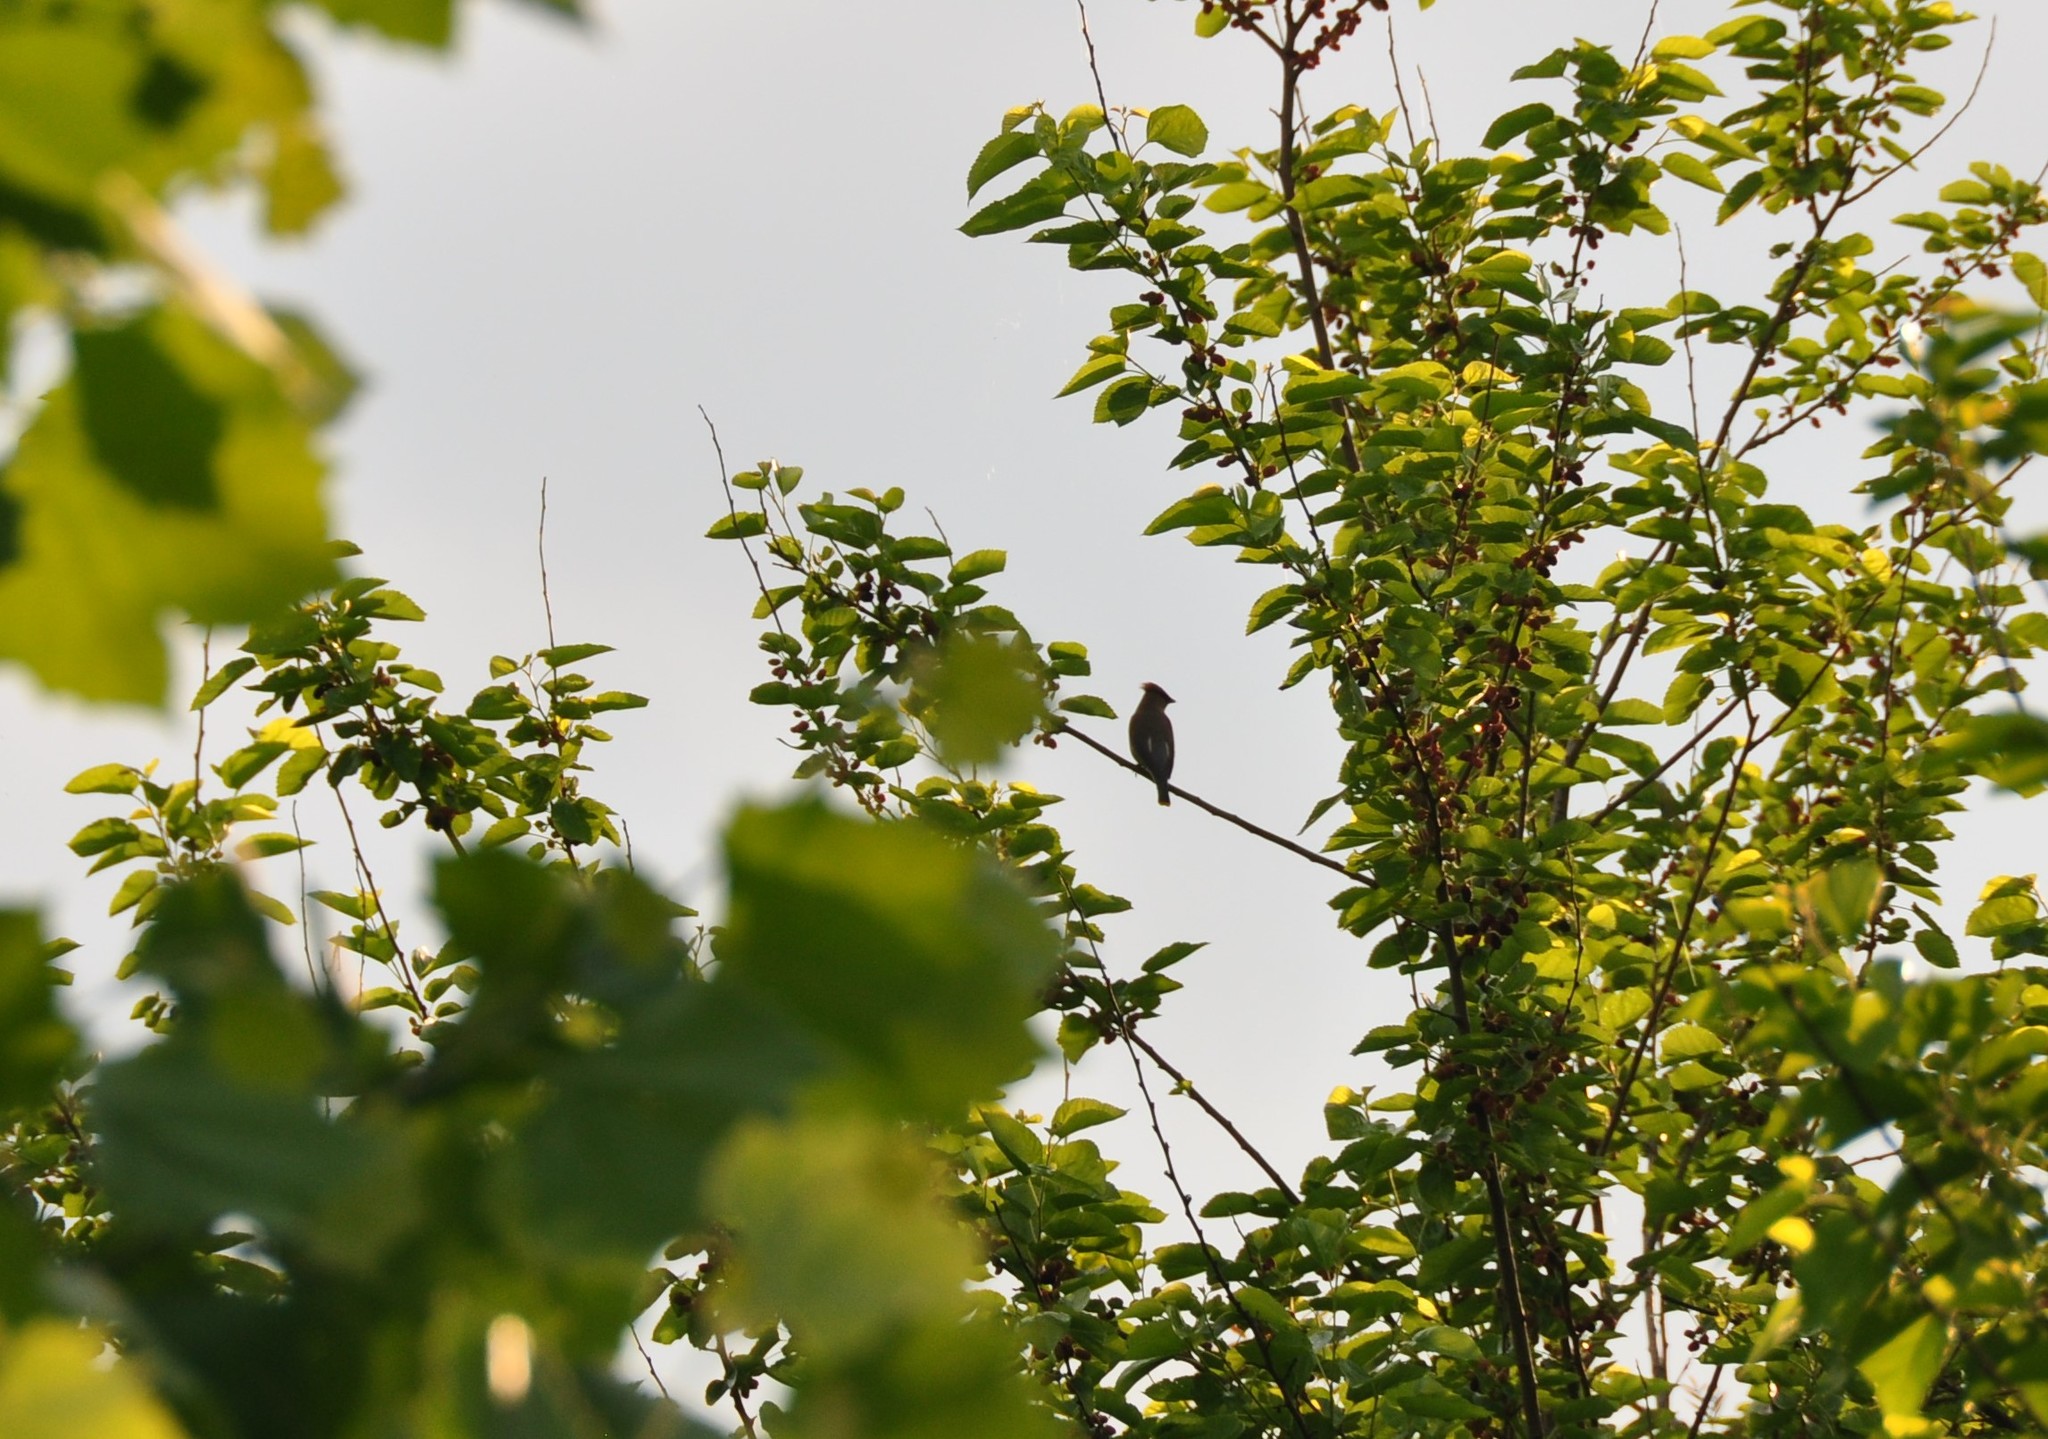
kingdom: Animalia
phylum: Chordata
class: Aves
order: Passeriformes
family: Bombycillidae
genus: Bombycilla
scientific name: Bombycilla cedrorum
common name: Cedar waxwing
